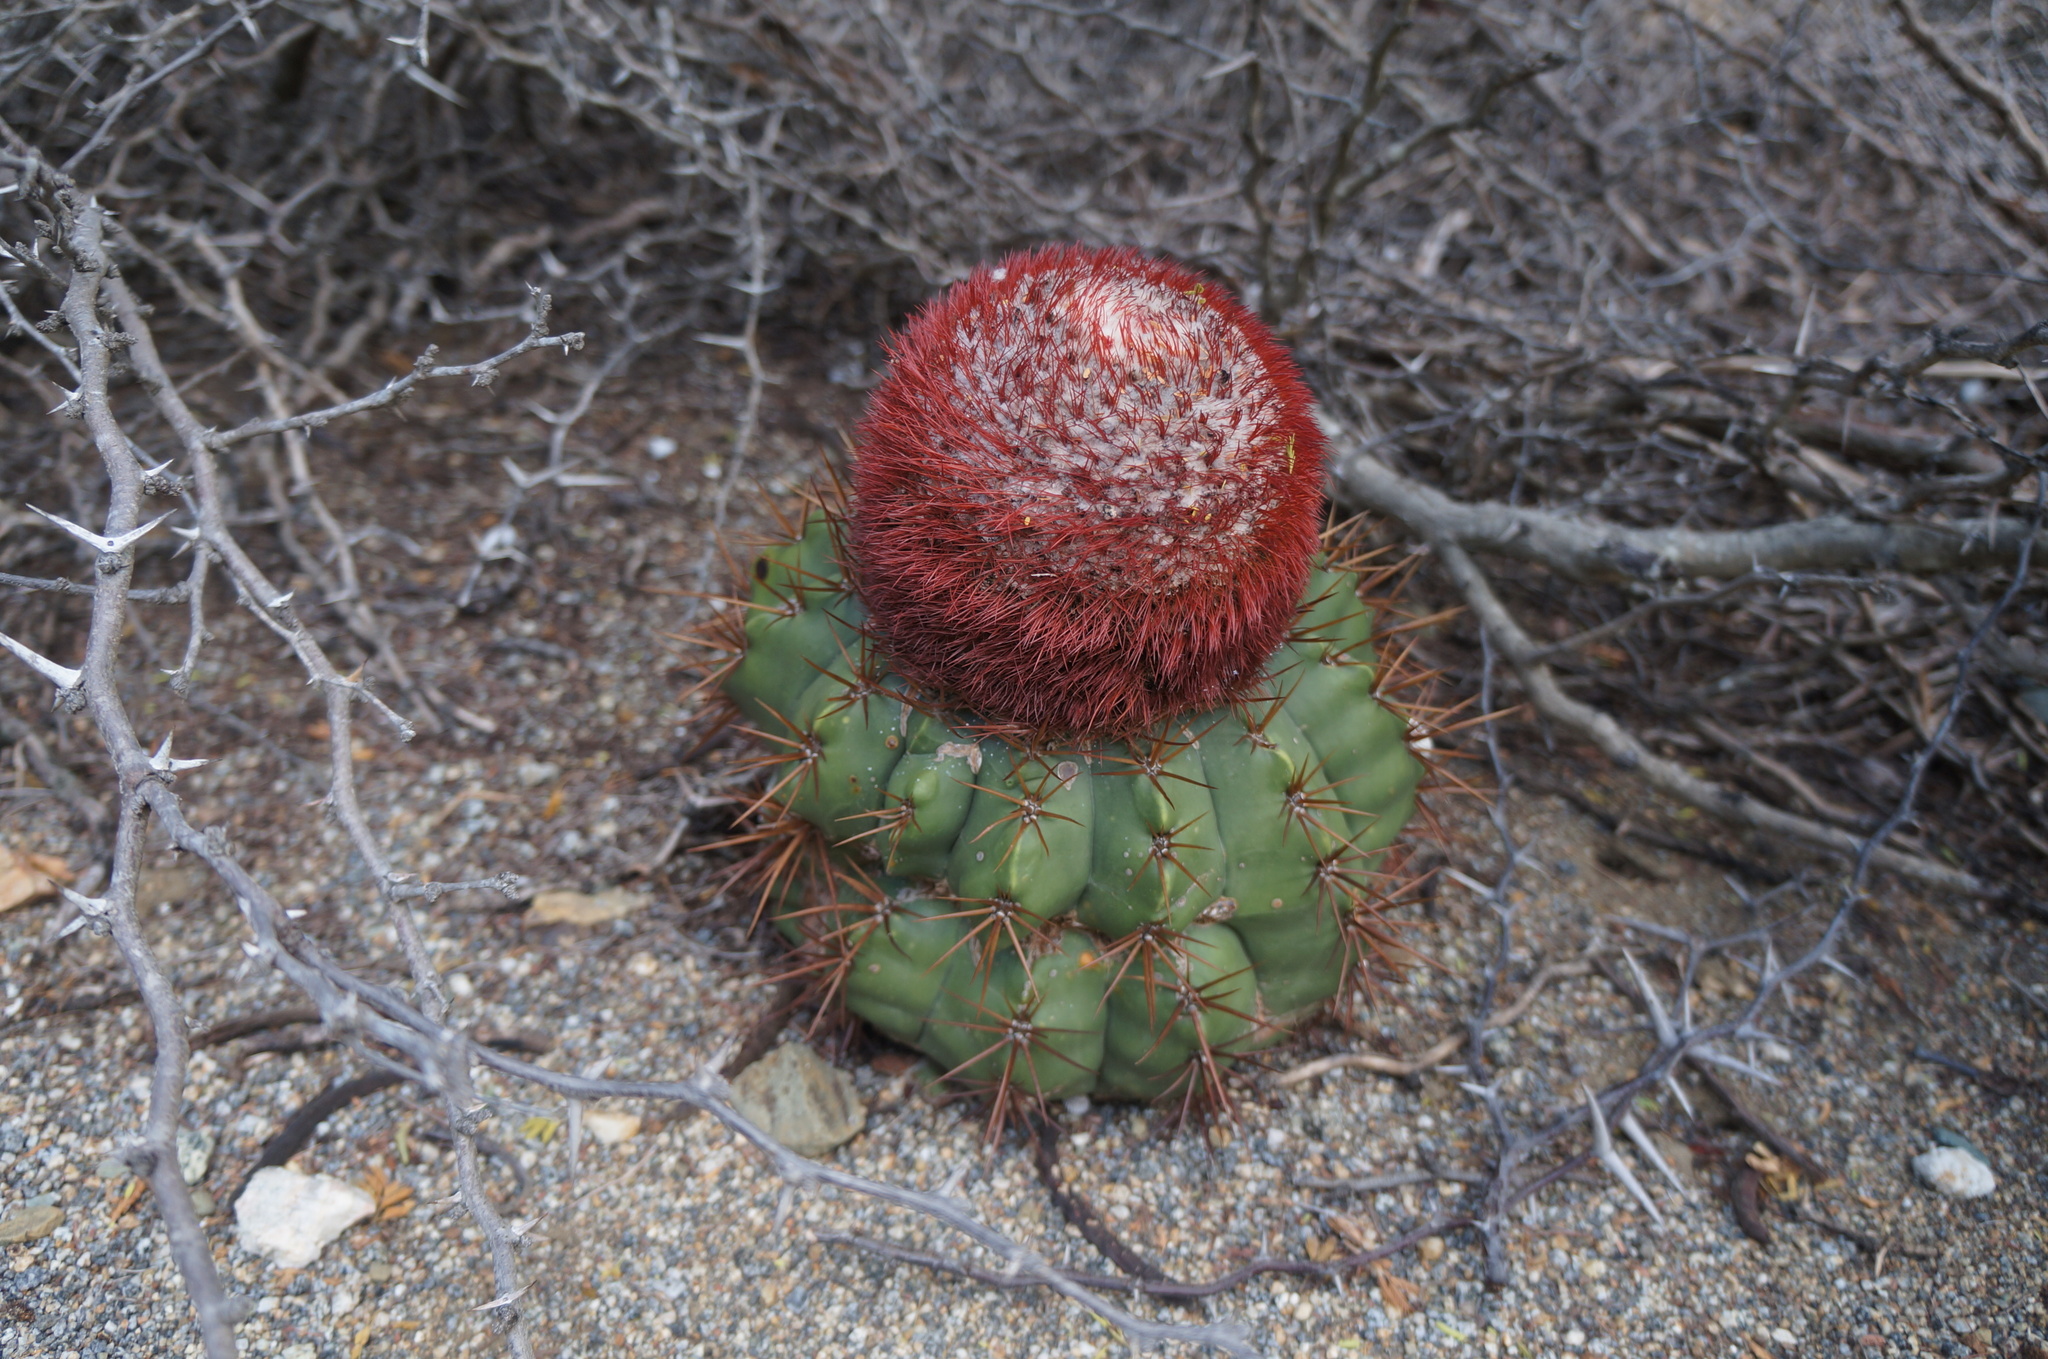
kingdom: Plantae
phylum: Tracheophyta
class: Magnoliopsida
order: Caryophyllales
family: Cactaceae
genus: Melocactus
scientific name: Melocactus macracanthos
